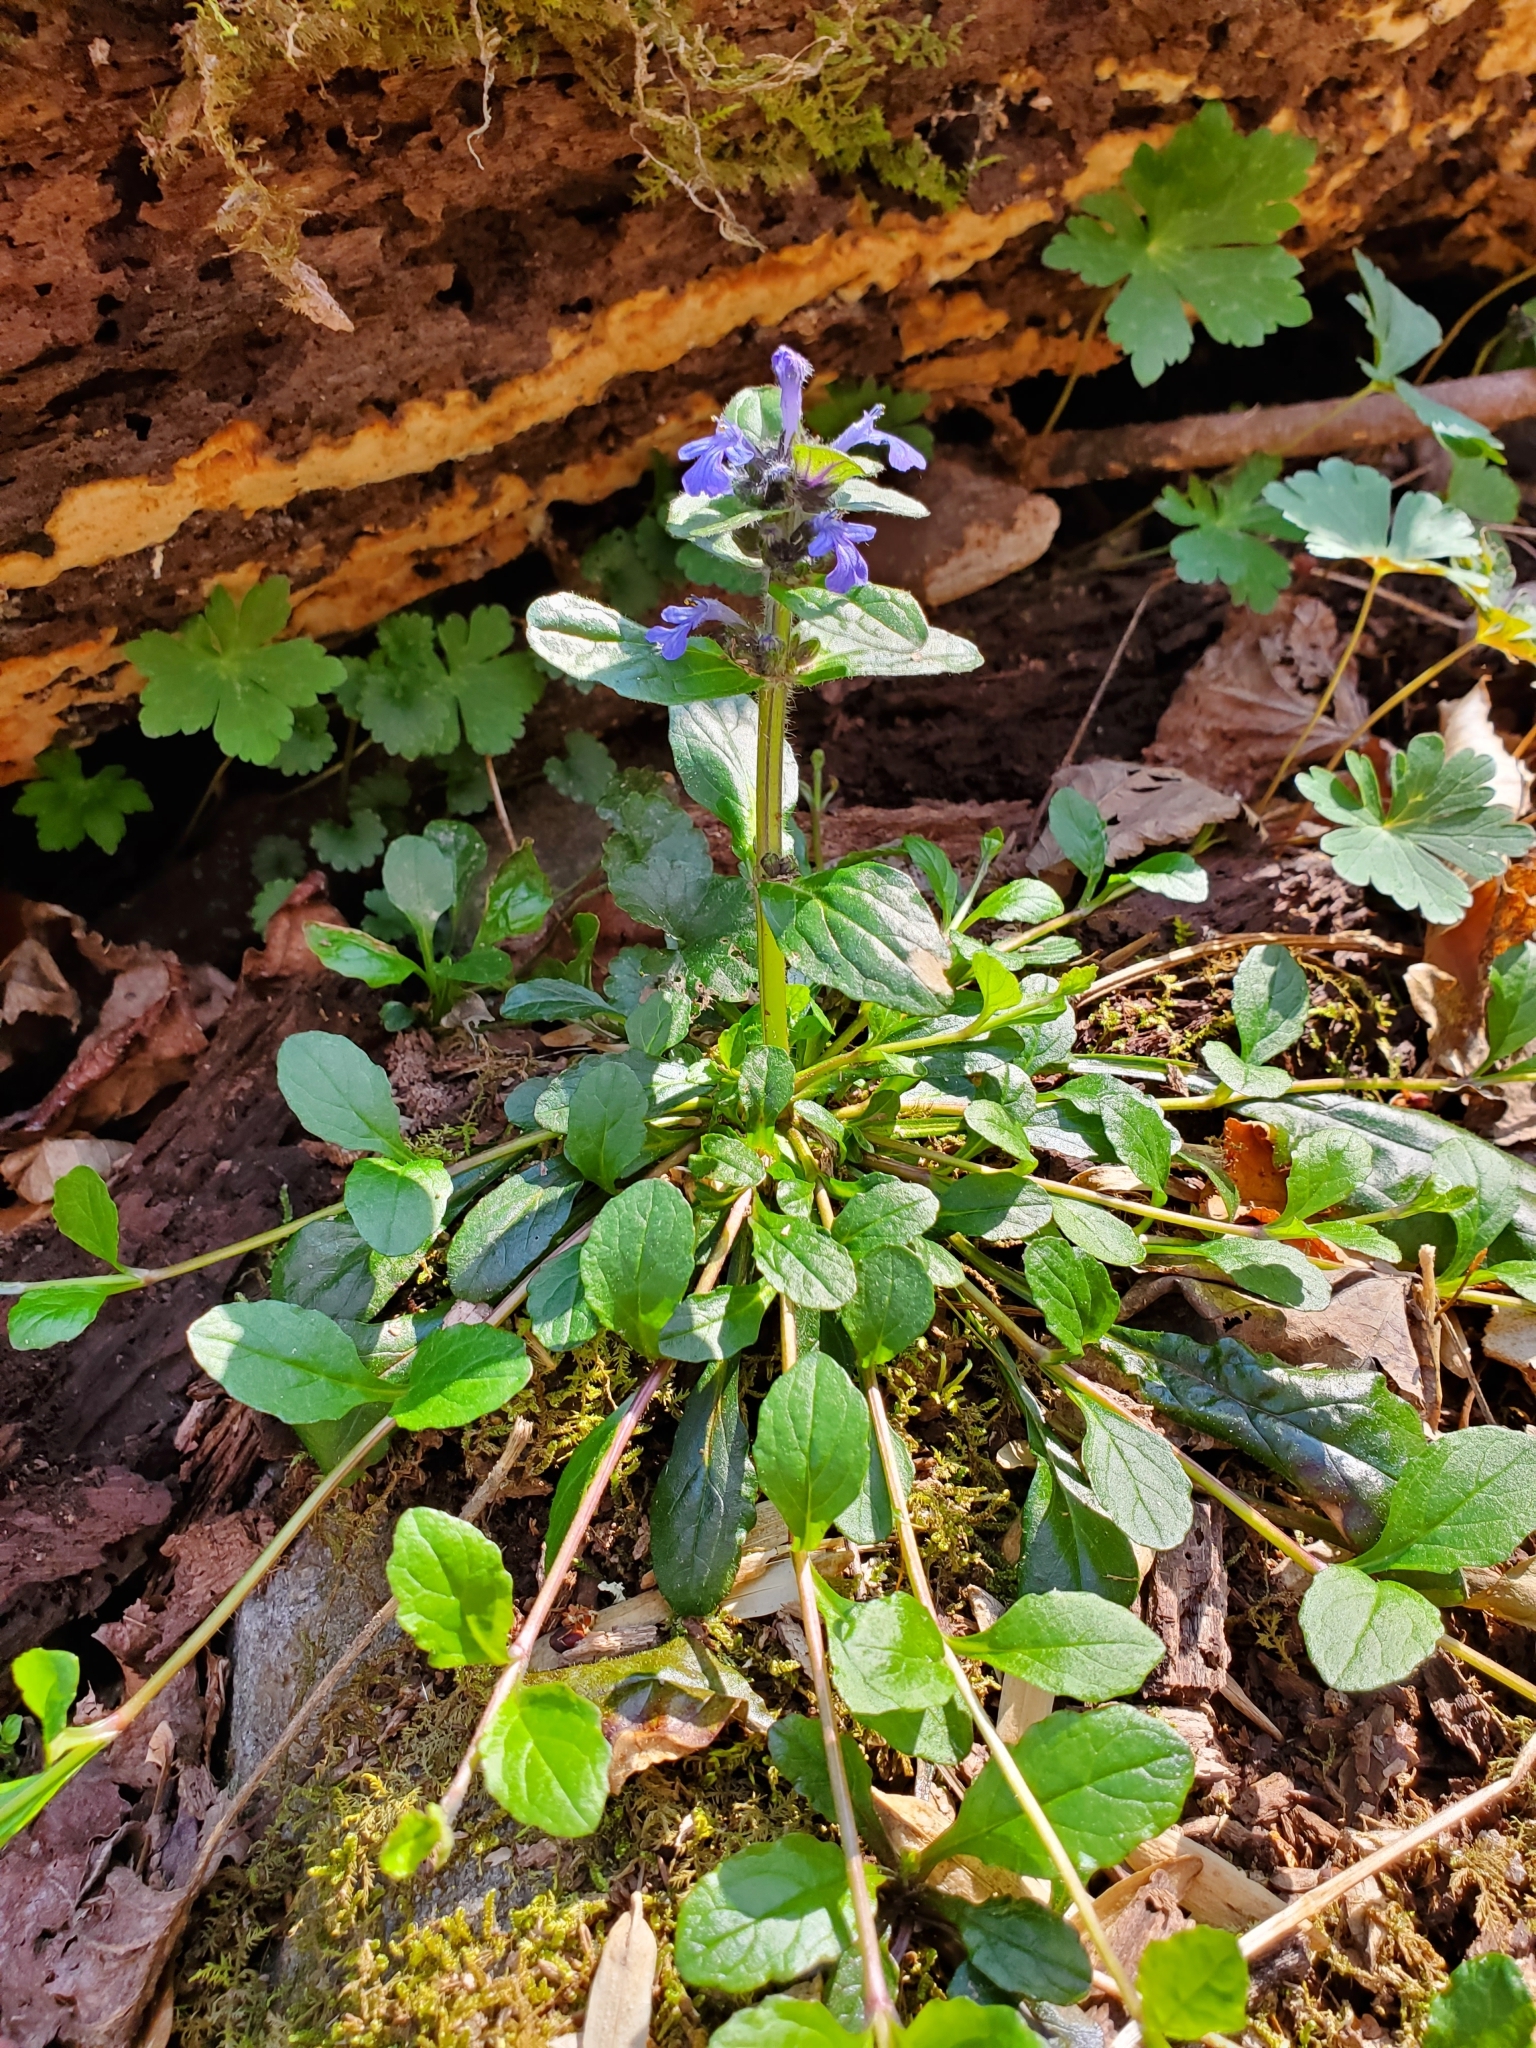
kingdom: Plantae
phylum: Tracheophyta
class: Magnoliopsida
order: Lamiales
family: Lamiaceae
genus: Ajuga
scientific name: Ajuga reptans
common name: Bugle
